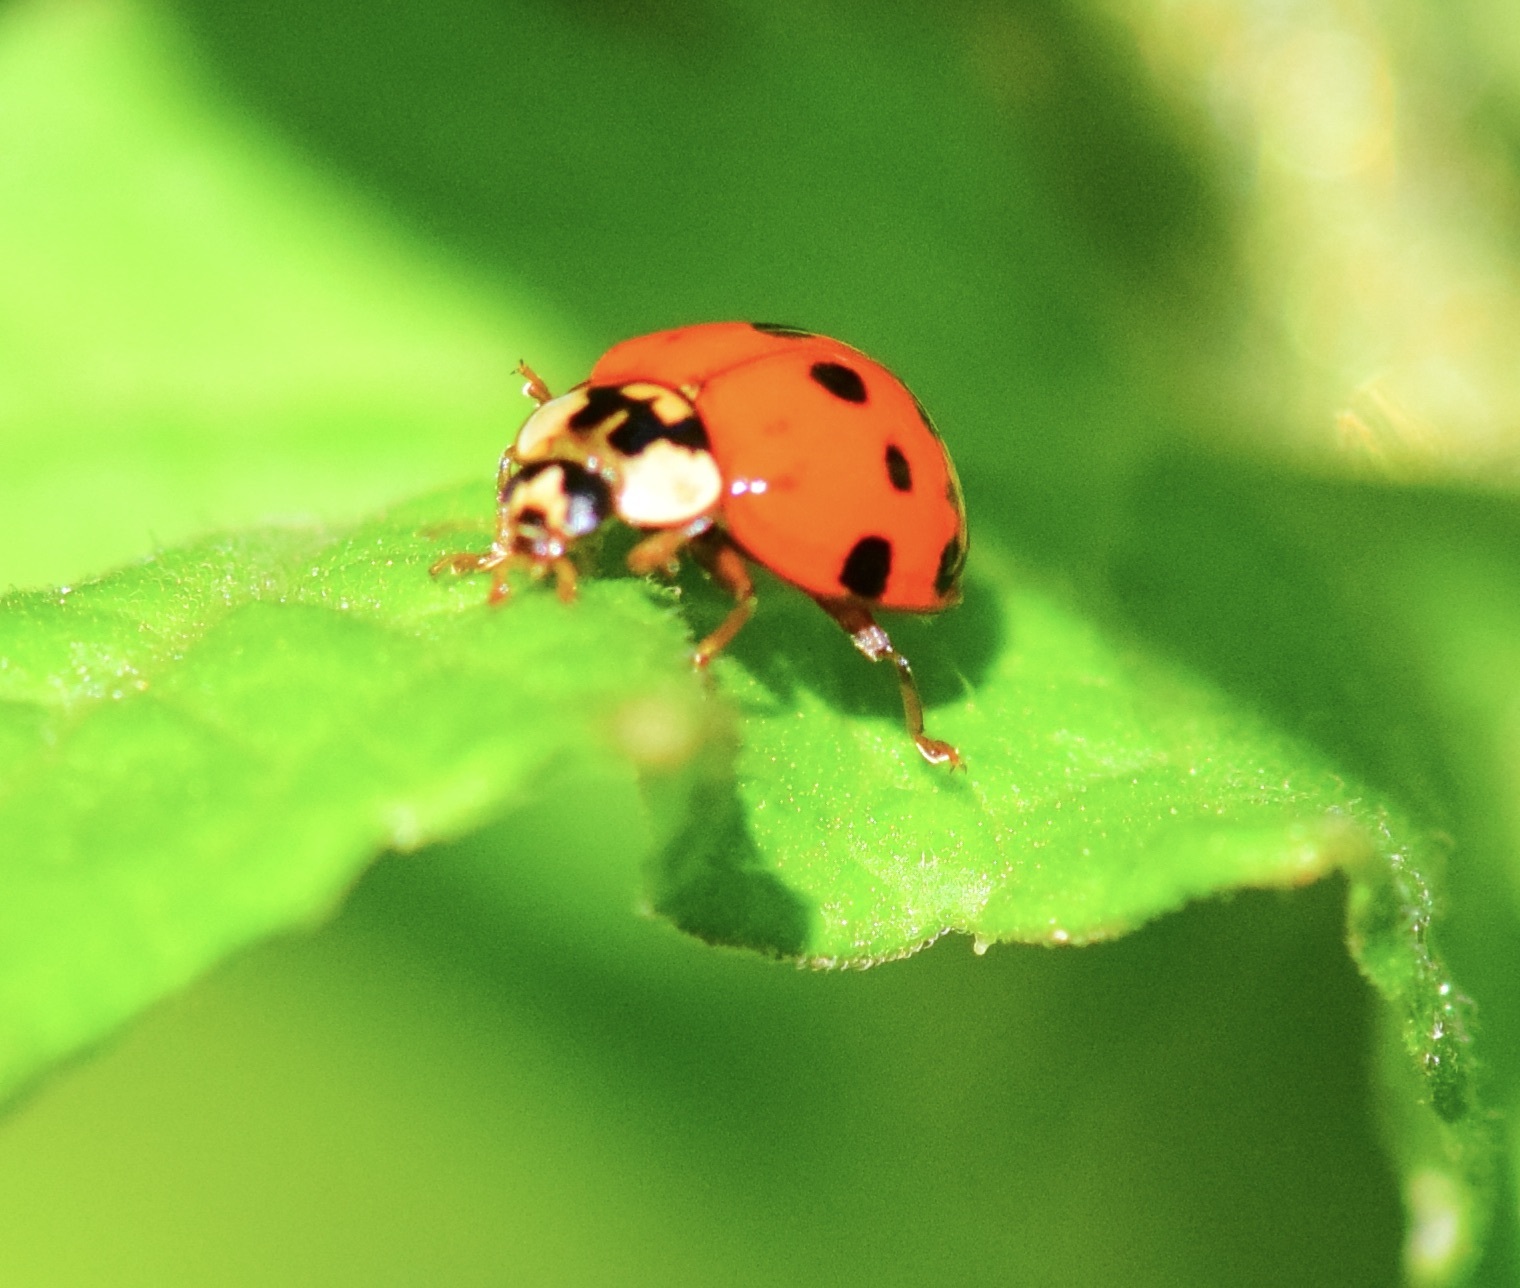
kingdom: Animalia
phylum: Arthropoda
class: Insecta
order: Coleoptera
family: Coccinellidae
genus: Harmonia
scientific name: Harmonia axyridis
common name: Harlequin ladybird
